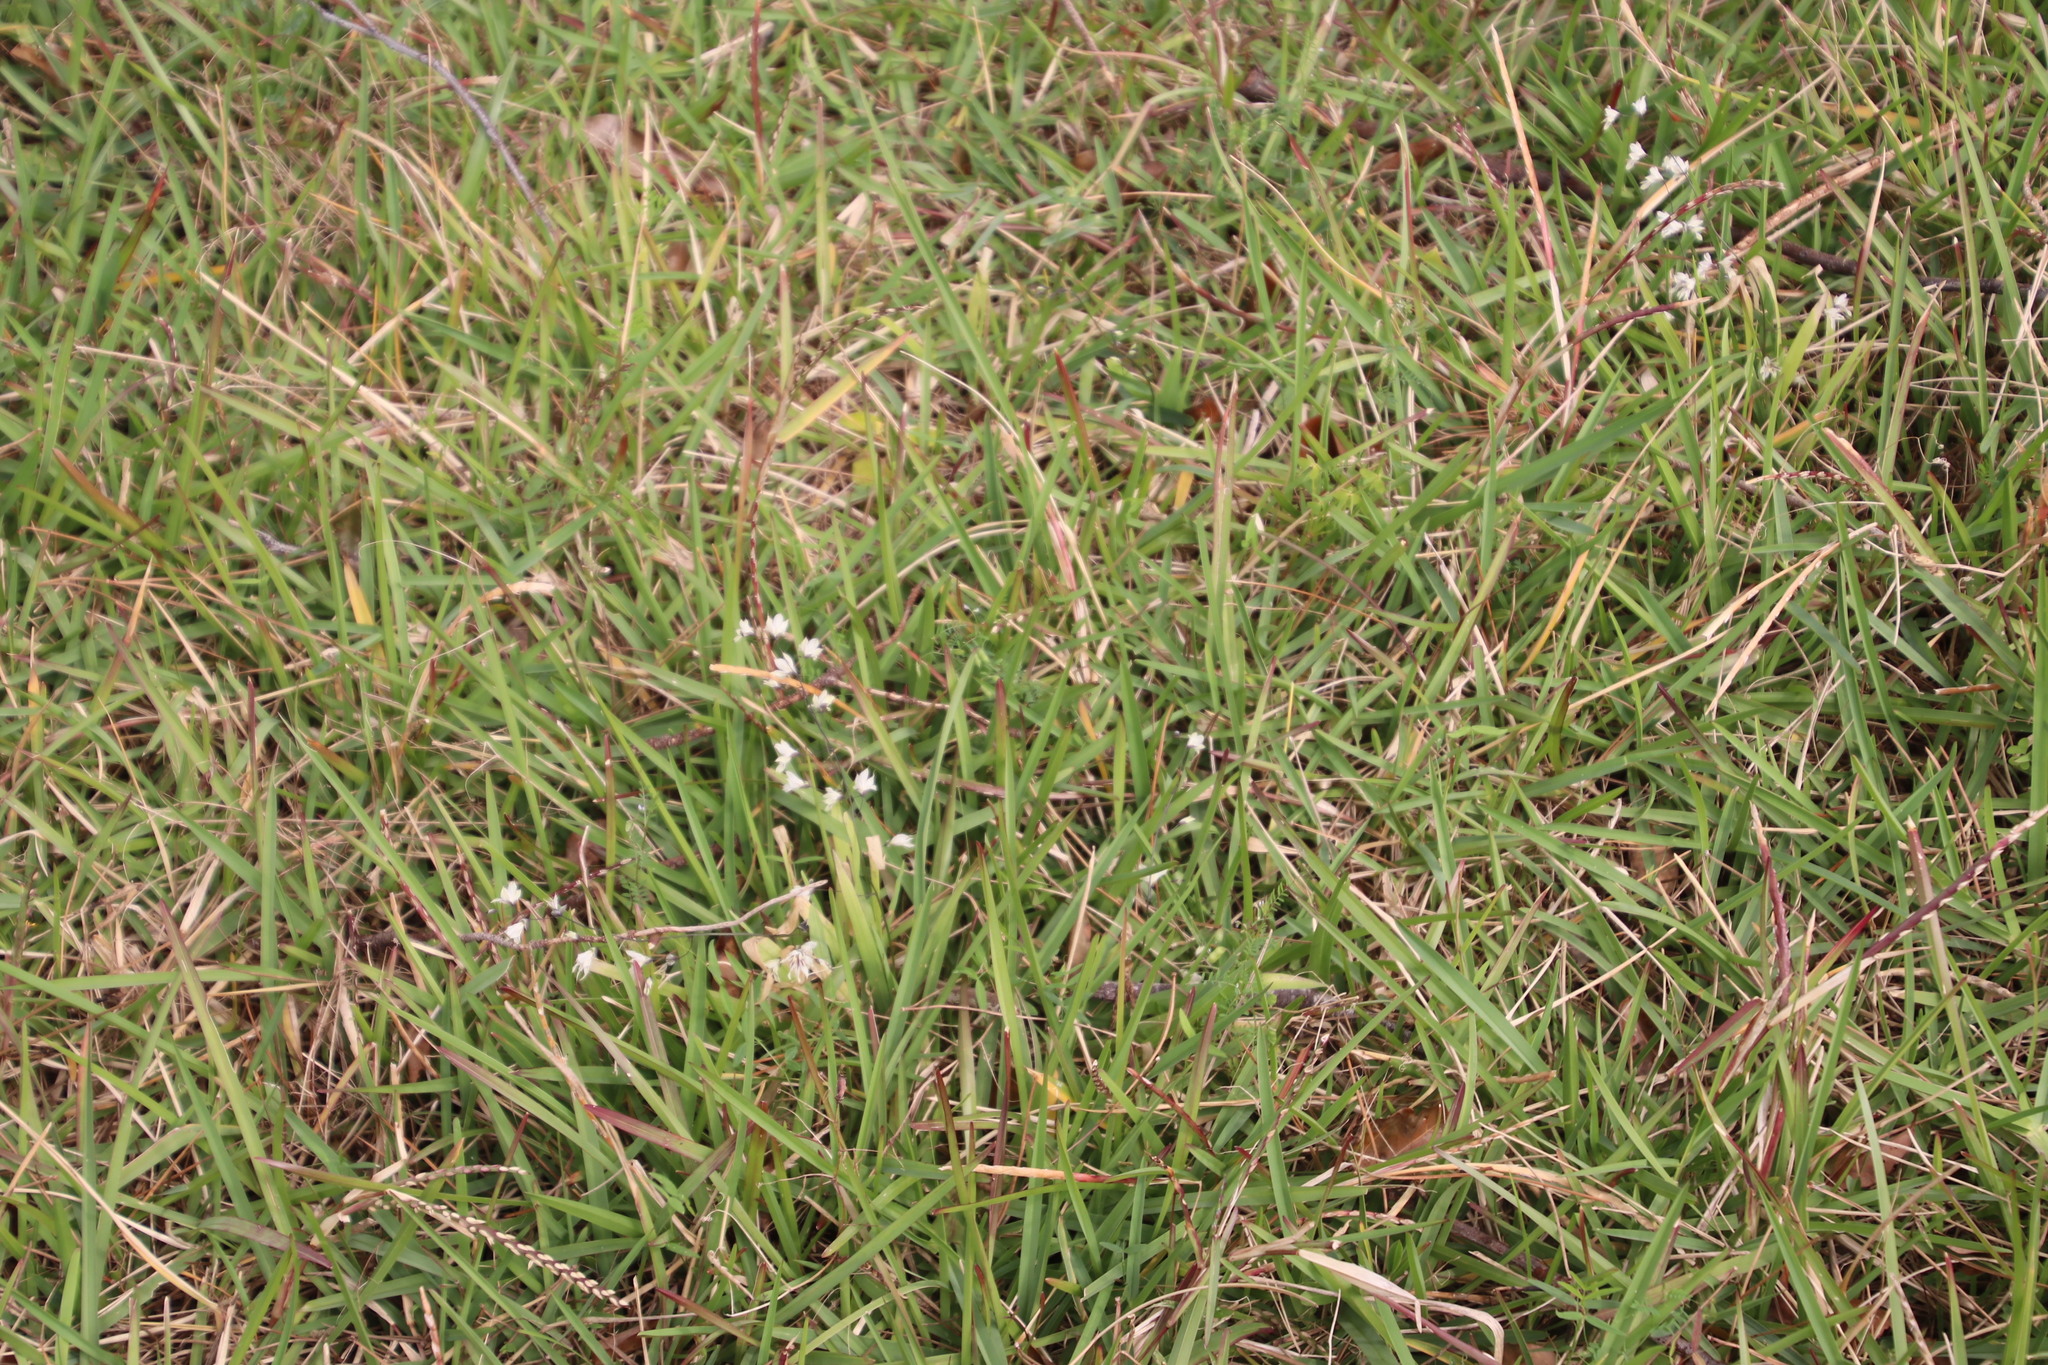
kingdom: Plantae
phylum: Tracheophyta
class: Liliopsida
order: Asparagales
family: Iridaceae
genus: Melasphaerula
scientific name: Melasphaerula graminea
